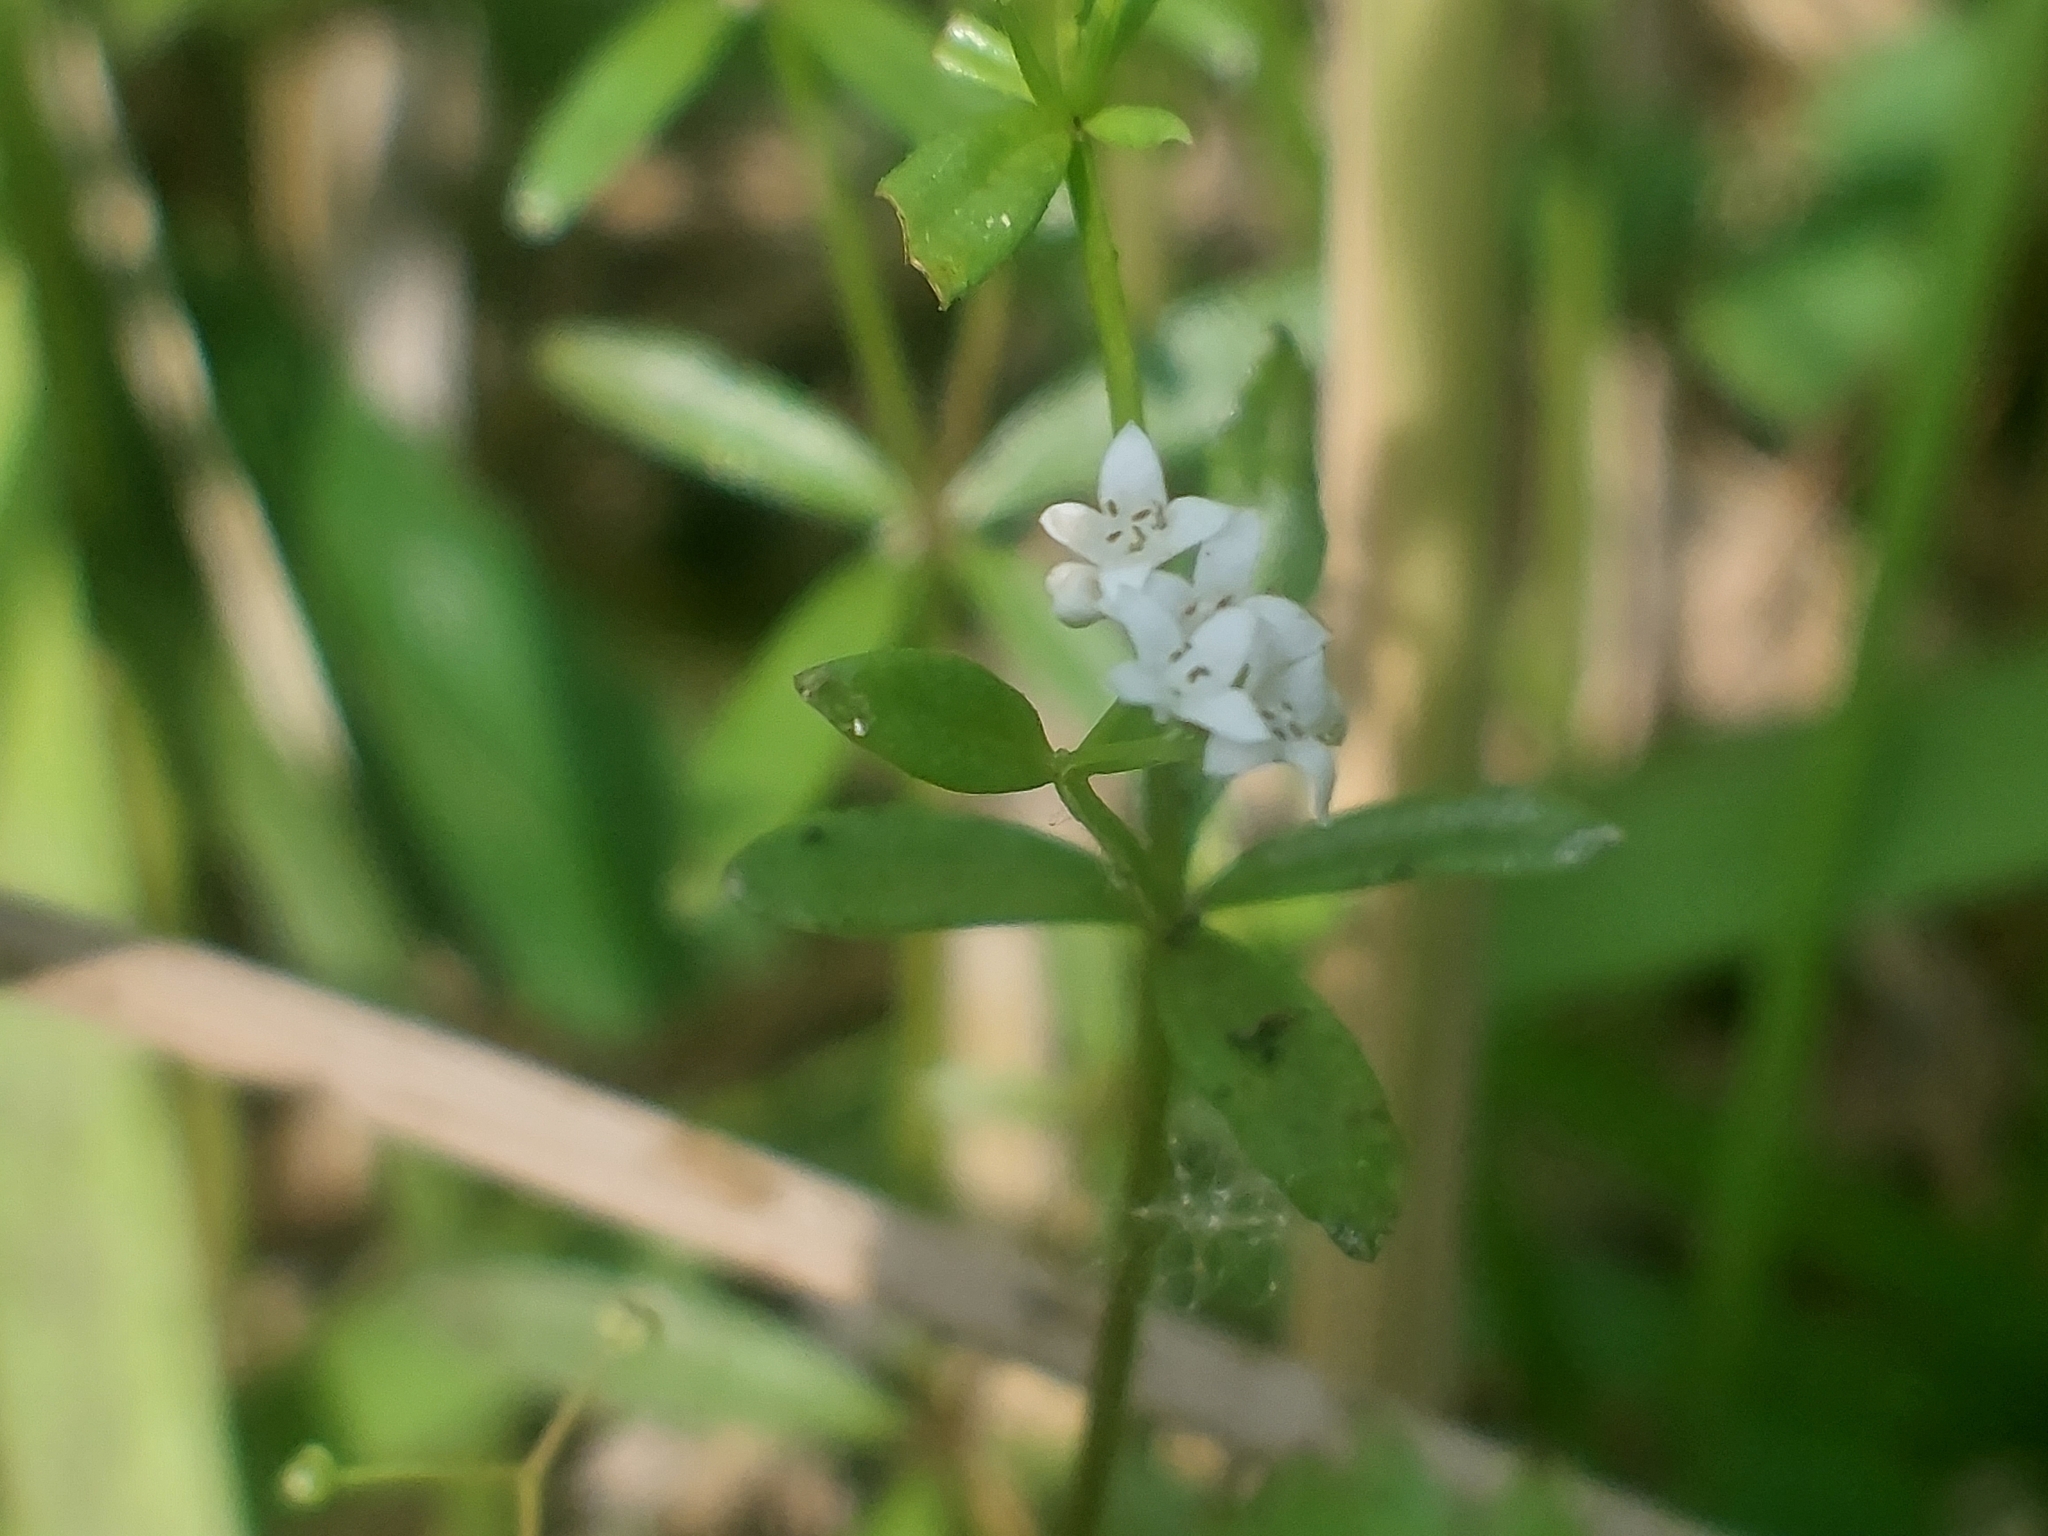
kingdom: Plantae
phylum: Tracheophyta
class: Magnoliopsida
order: Gentianales
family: Rubiaceae
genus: Galium
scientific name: Galium palustre
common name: Common marsh-bedstraw
